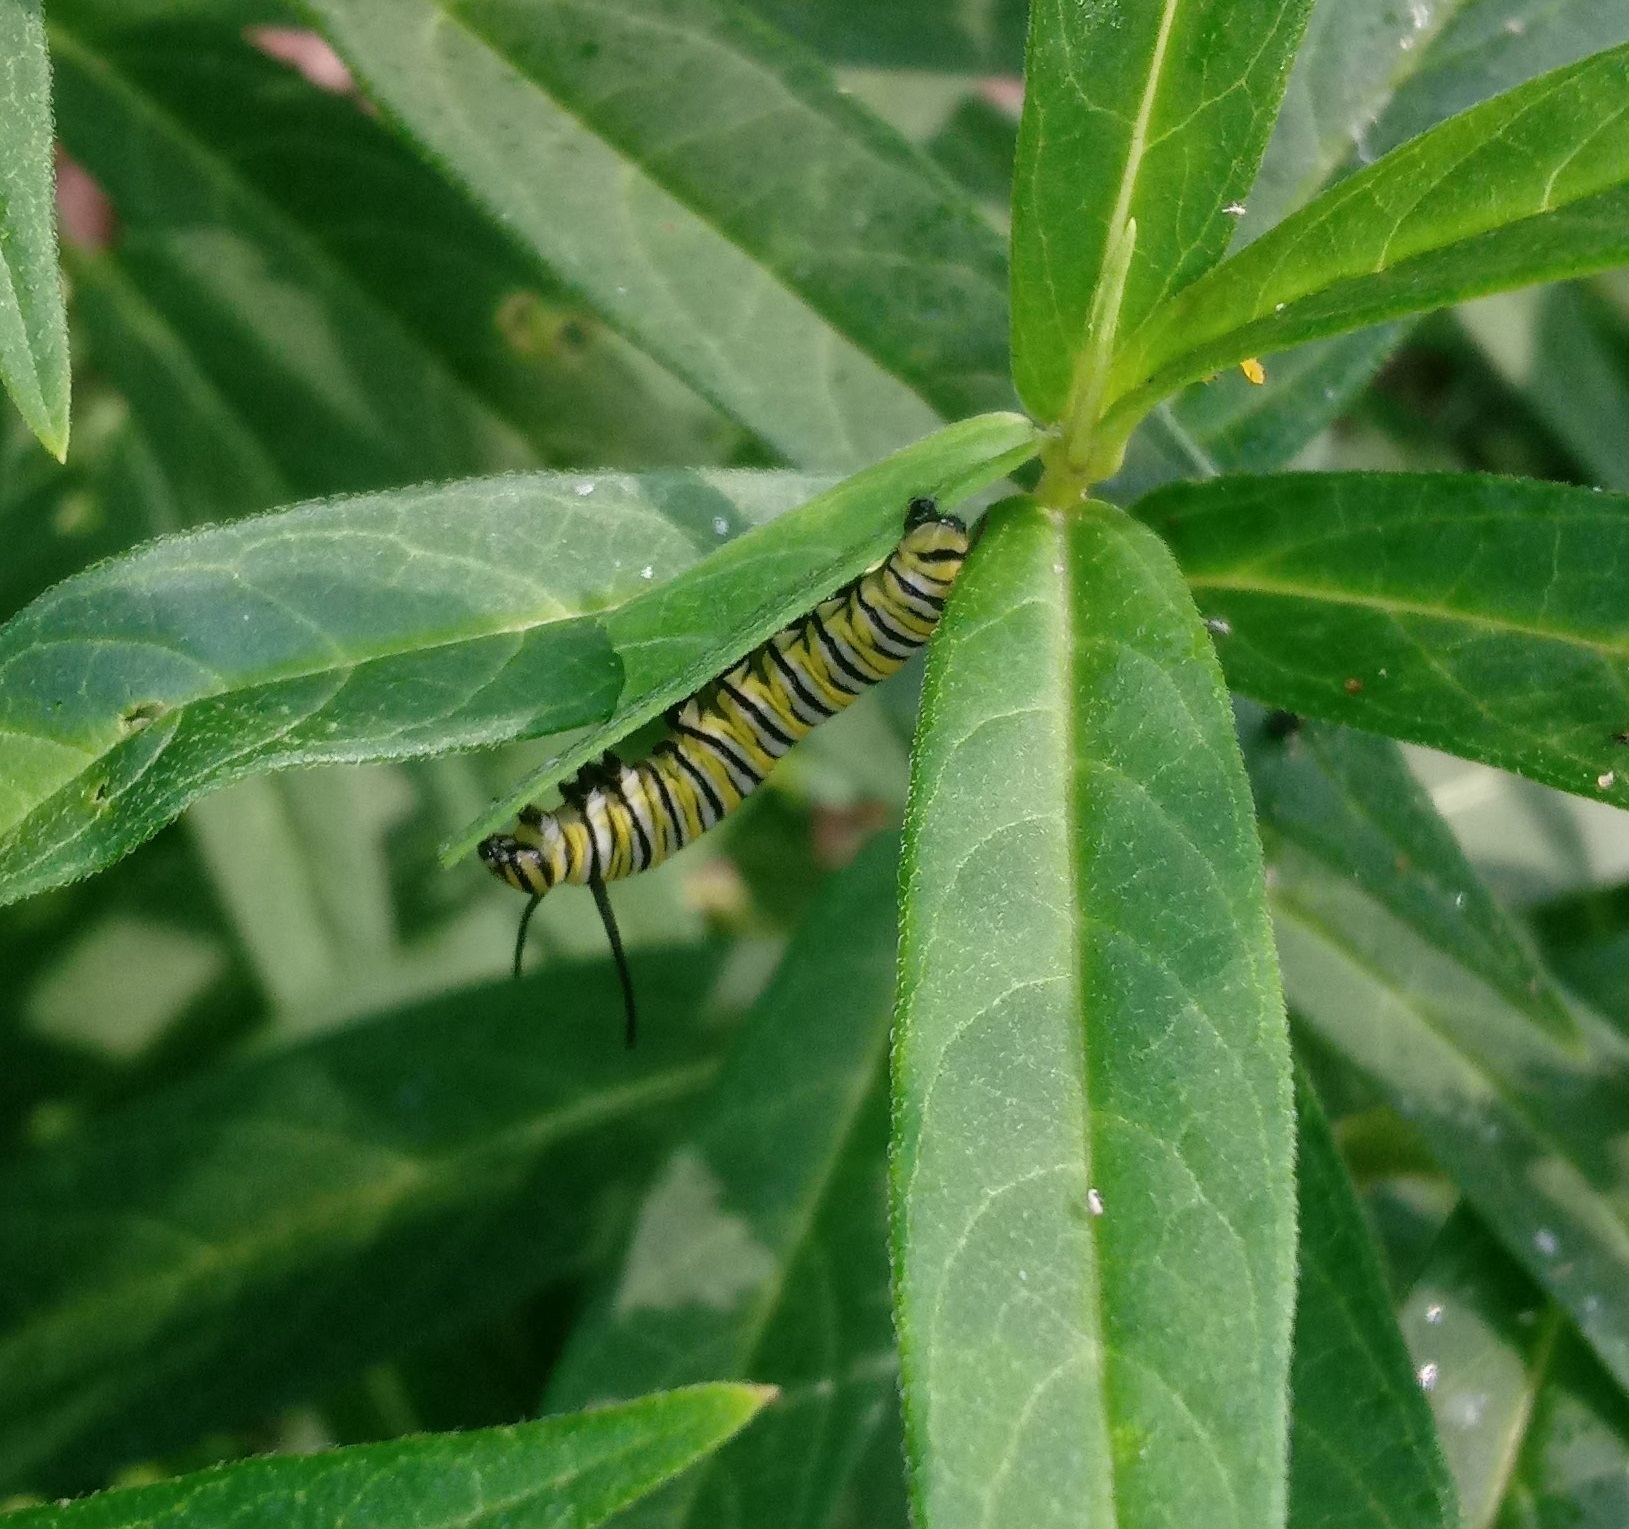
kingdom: Animalia
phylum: Arthropoda
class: Insecta
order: Lepidoptera
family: Nymphalidae
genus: Danaus
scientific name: Danaus plexippus
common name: Monarch
